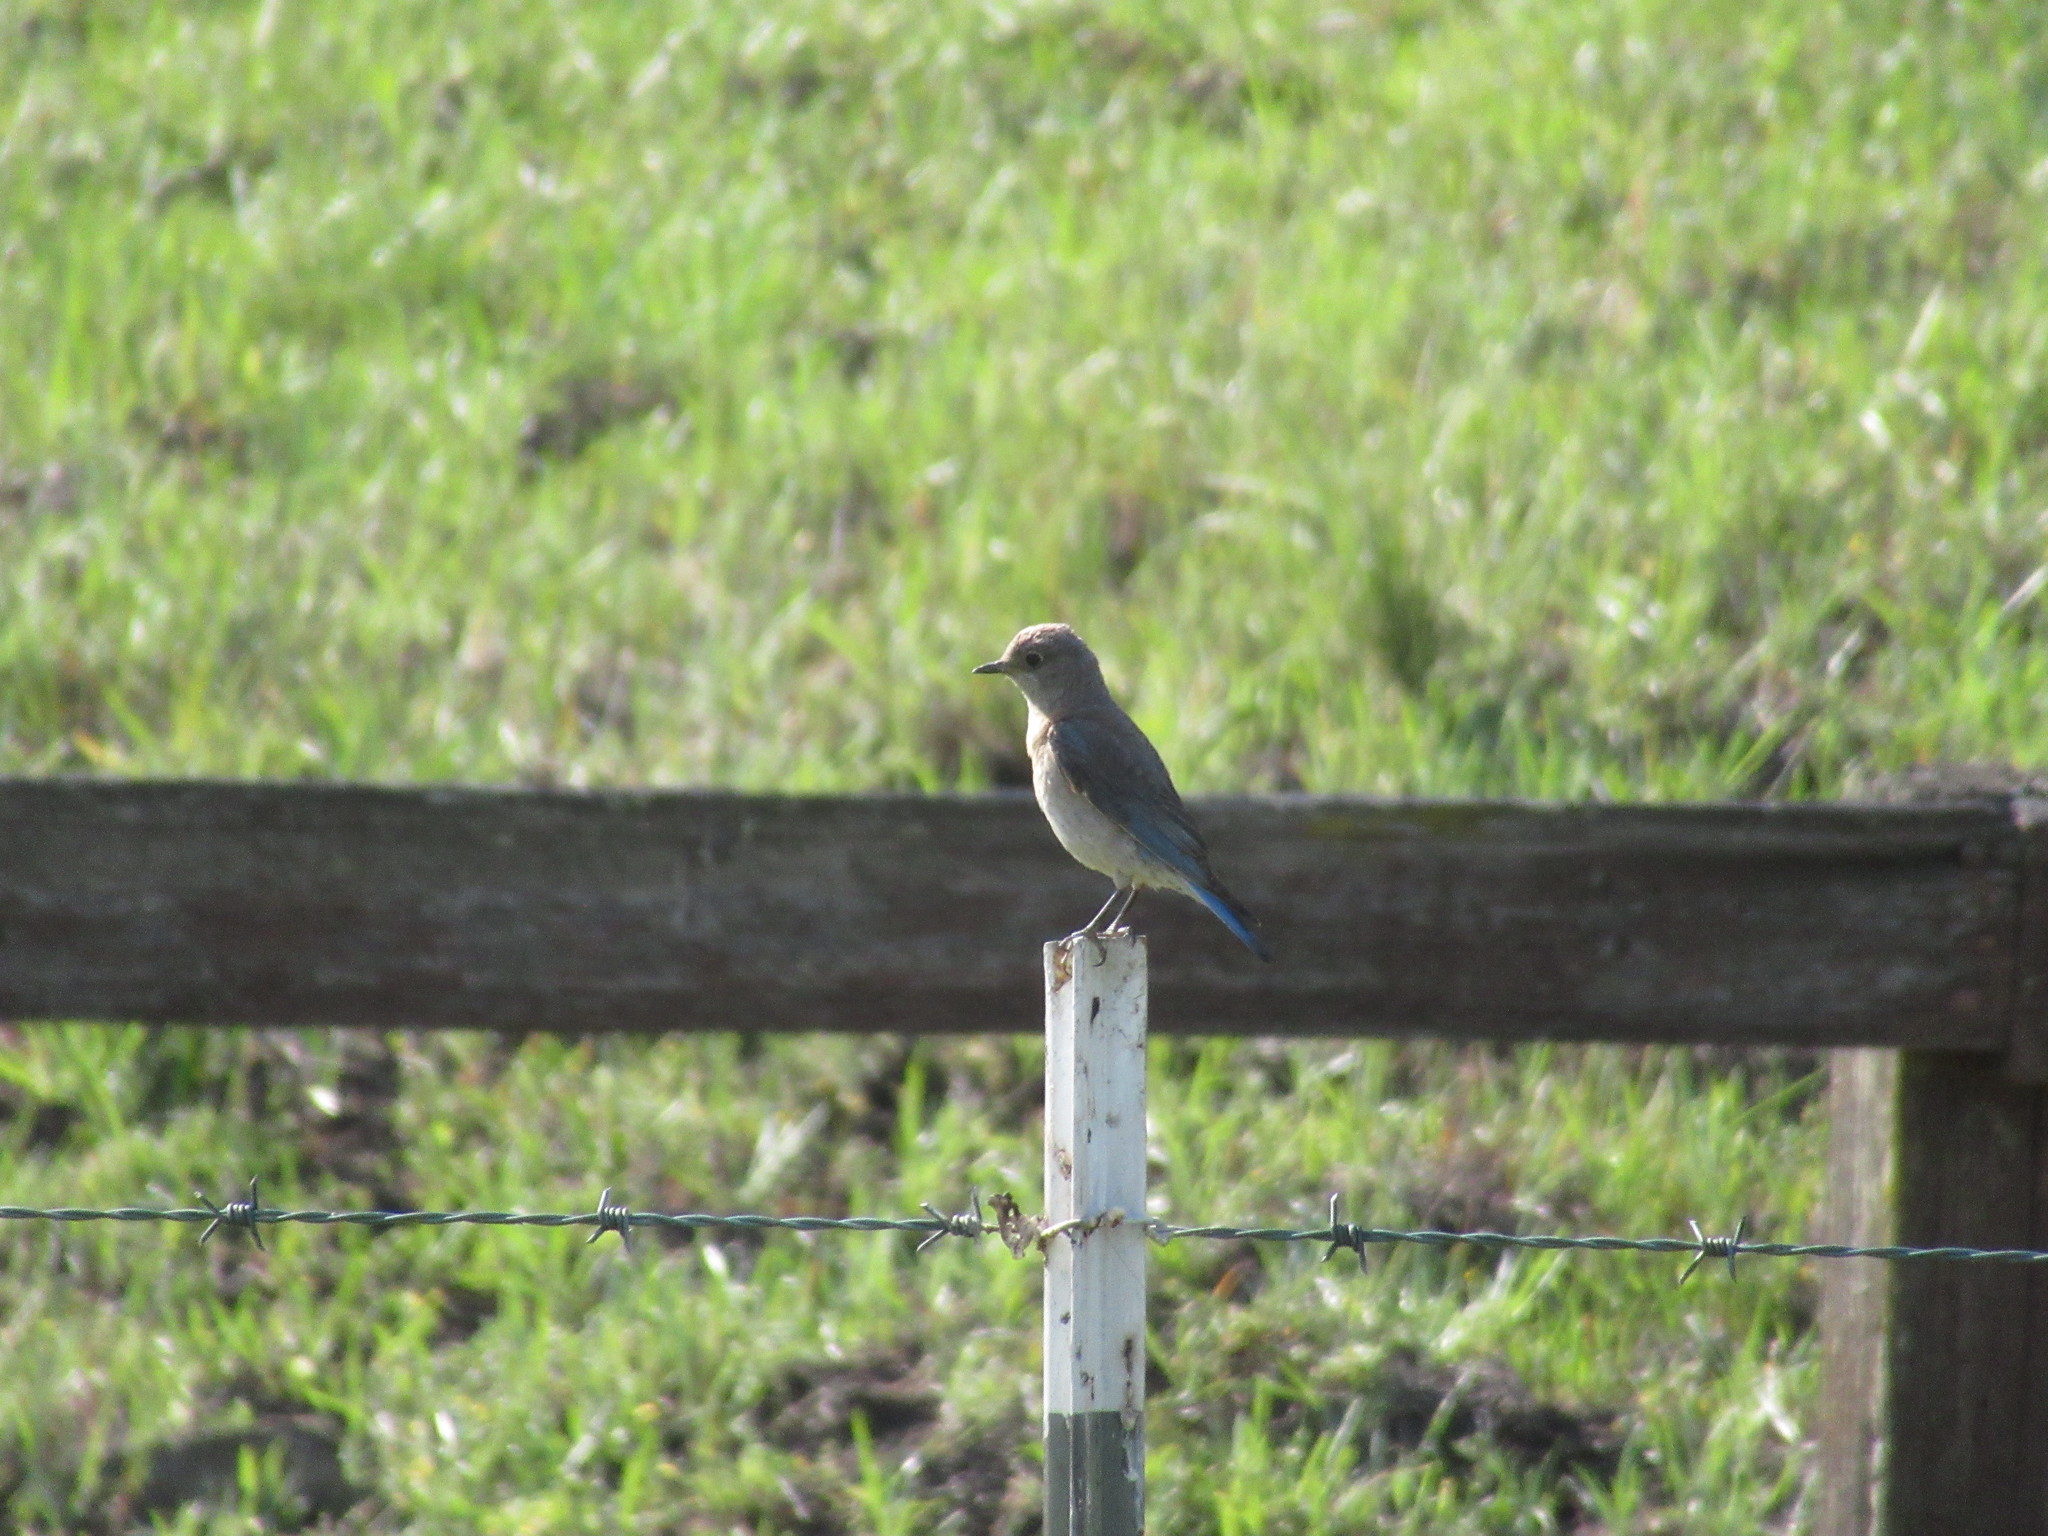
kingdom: Animalia
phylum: Chordata
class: Aves
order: Passeriformes
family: Turdidae
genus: Sialia
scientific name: Sialia mexicana
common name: Western bluebird
